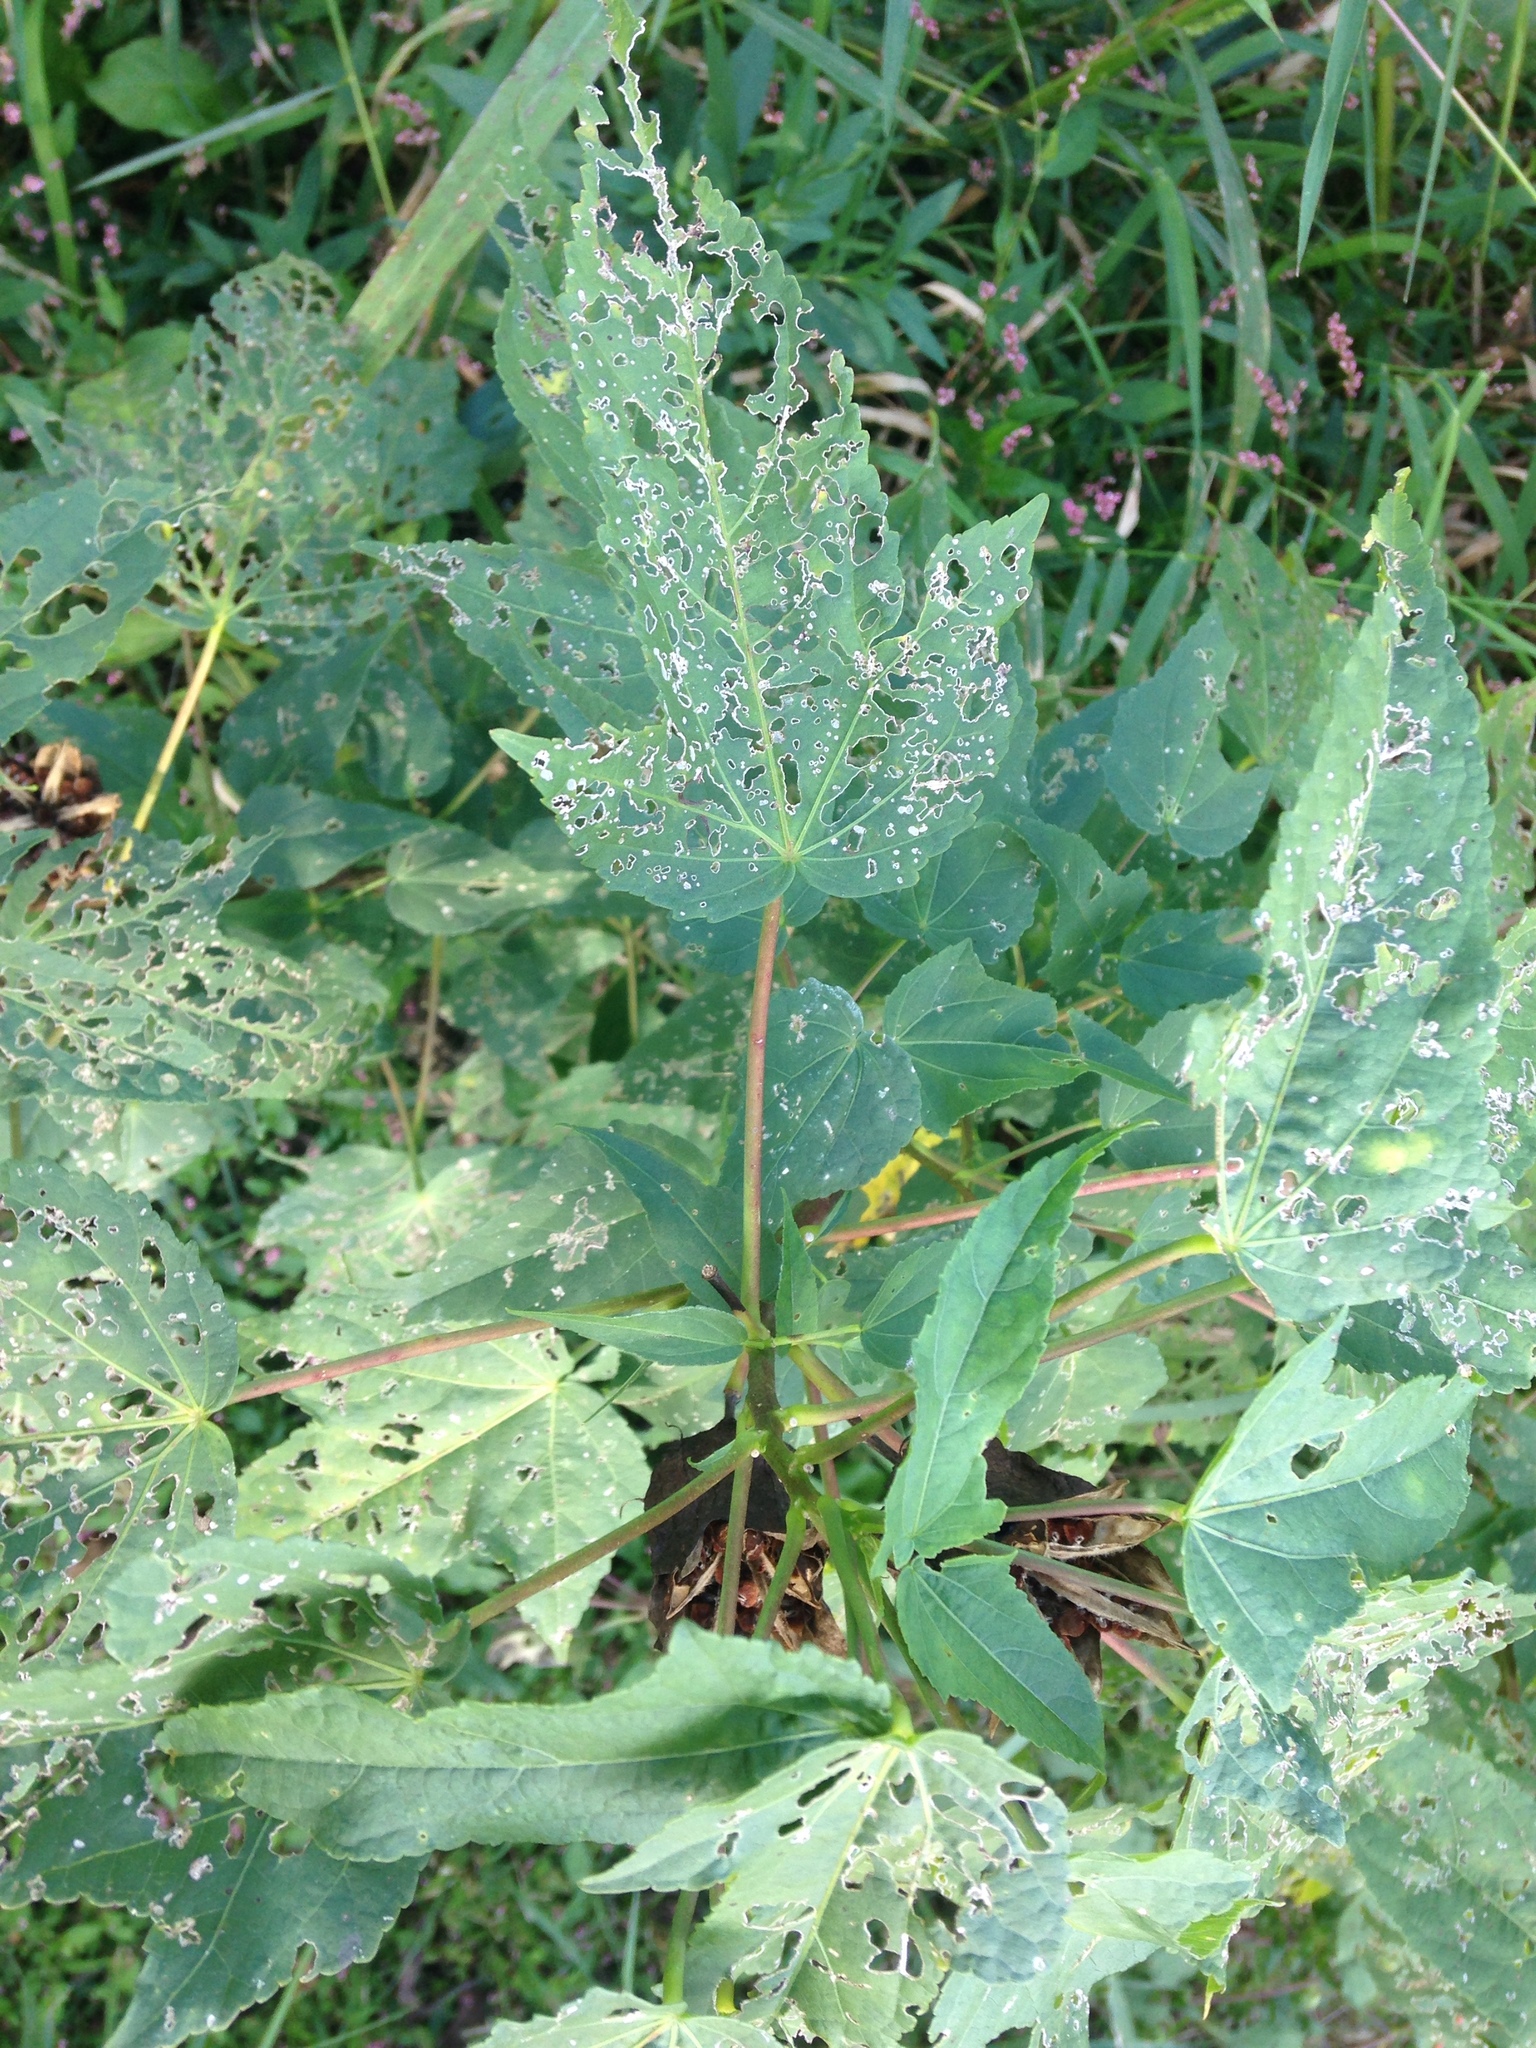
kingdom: Plantae
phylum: Tracheophyta
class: Magnoliopsida
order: Malvales
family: Malvaceae
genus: Hibiscus
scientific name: Hibiscus laevis
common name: Scarlet rose-mallow
